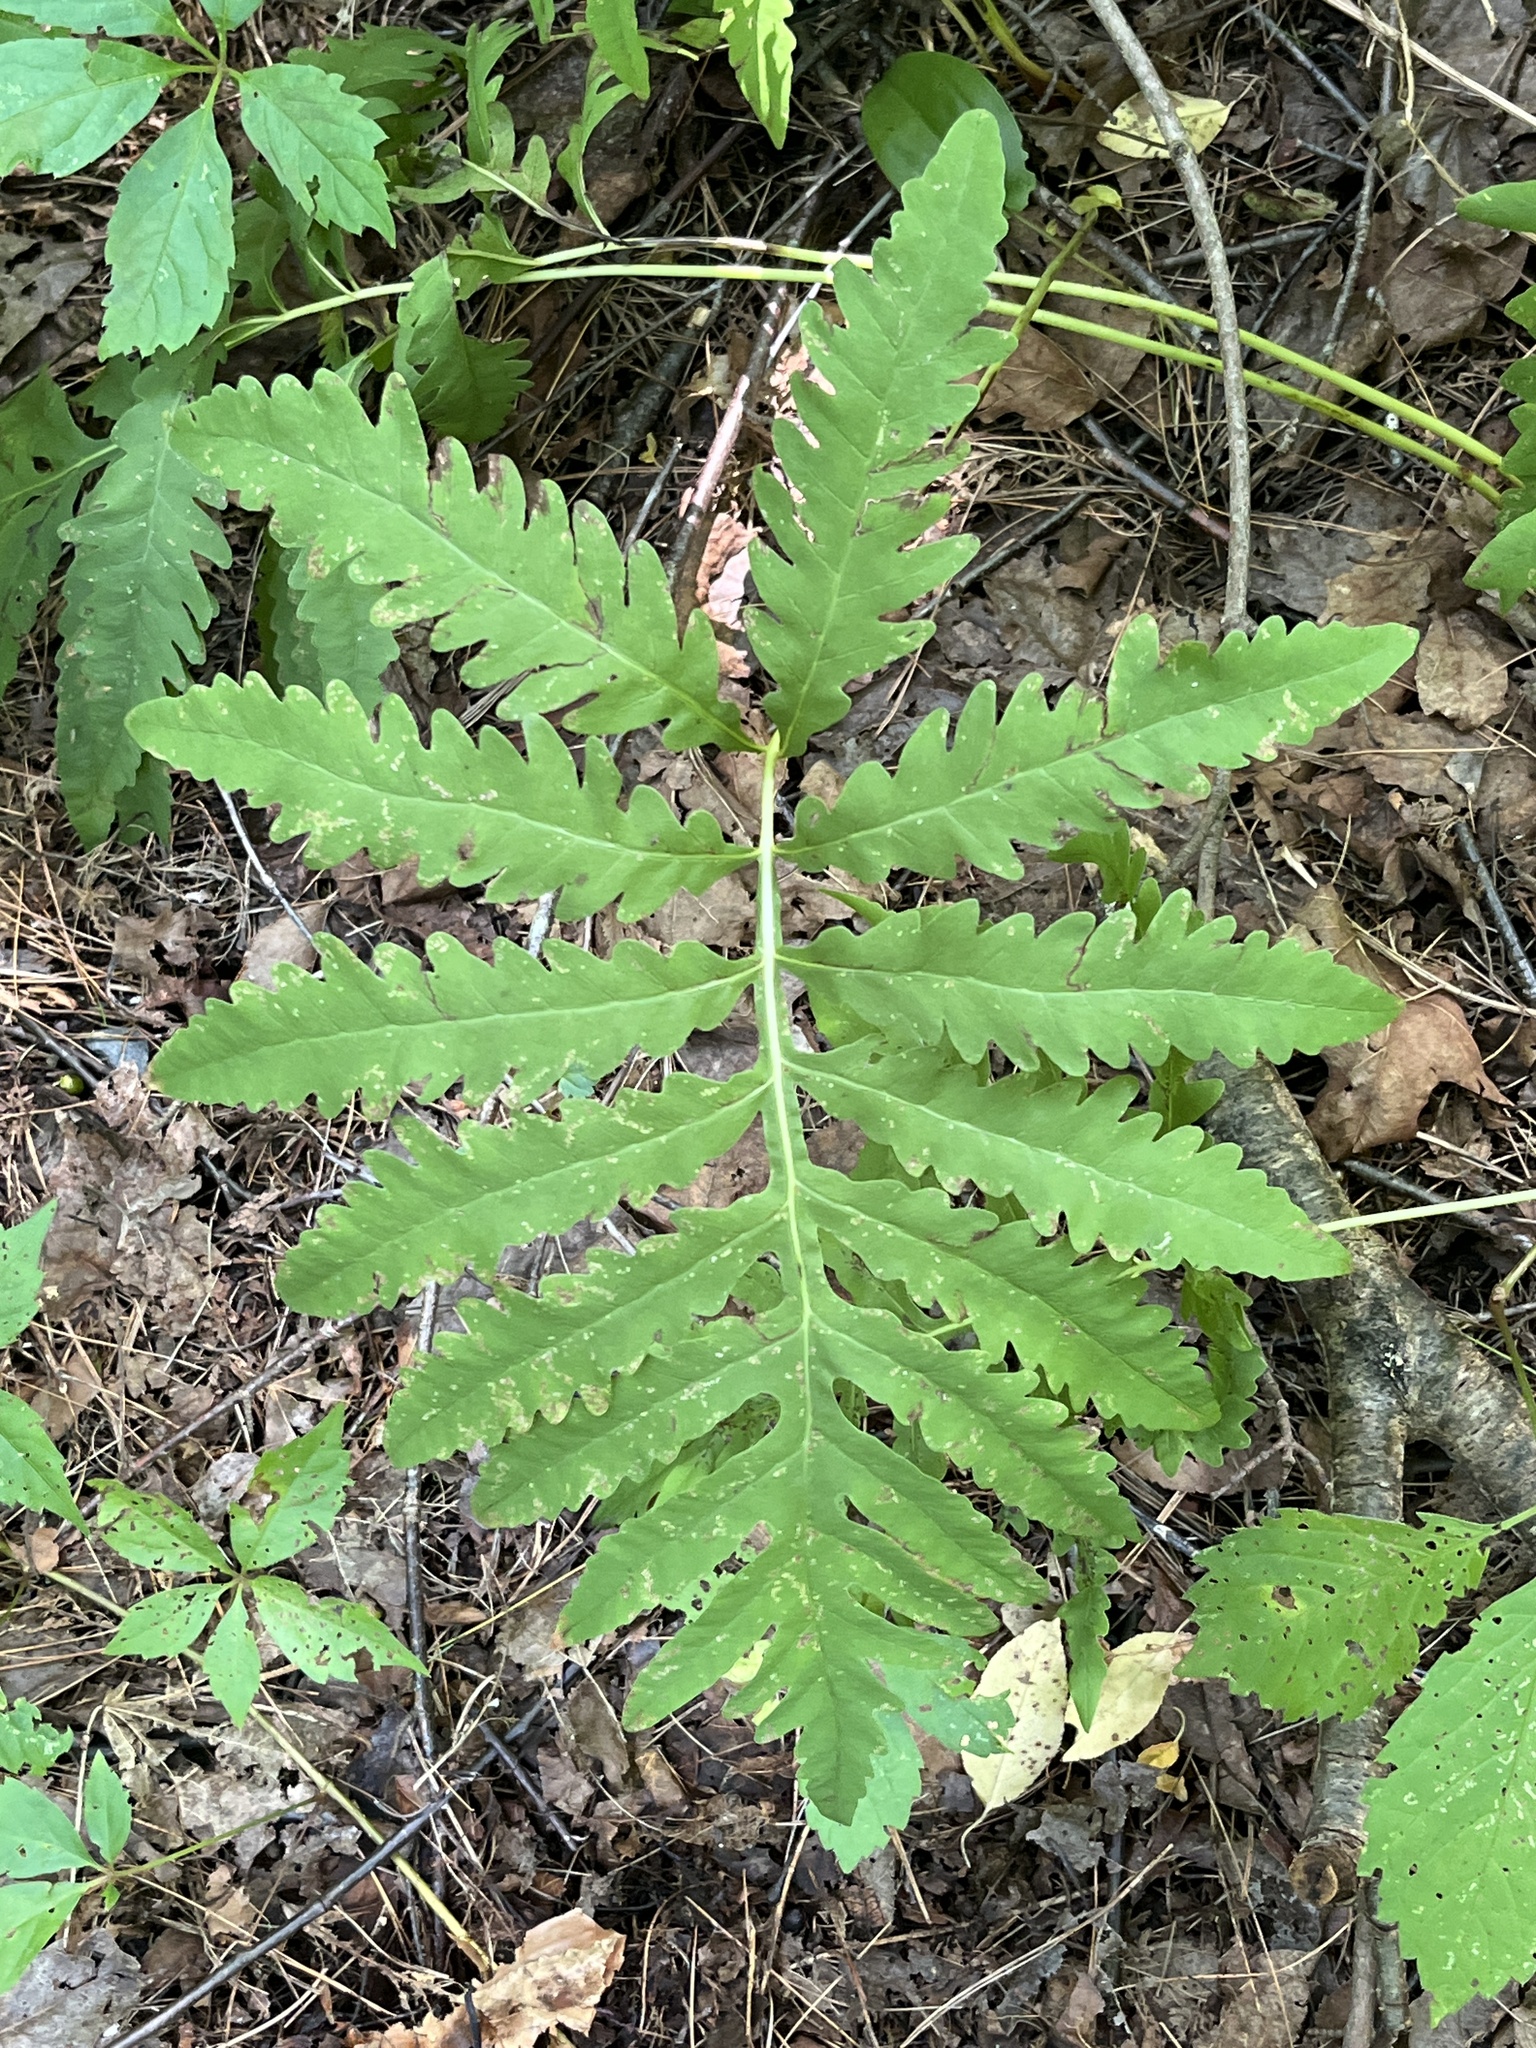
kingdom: Plantae
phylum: Tracheophyta
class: Polypodiopsida
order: Polypodiales
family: Onocleaceae
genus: Onoclea
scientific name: Onoclea sensibilis
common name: Sensitive fern
